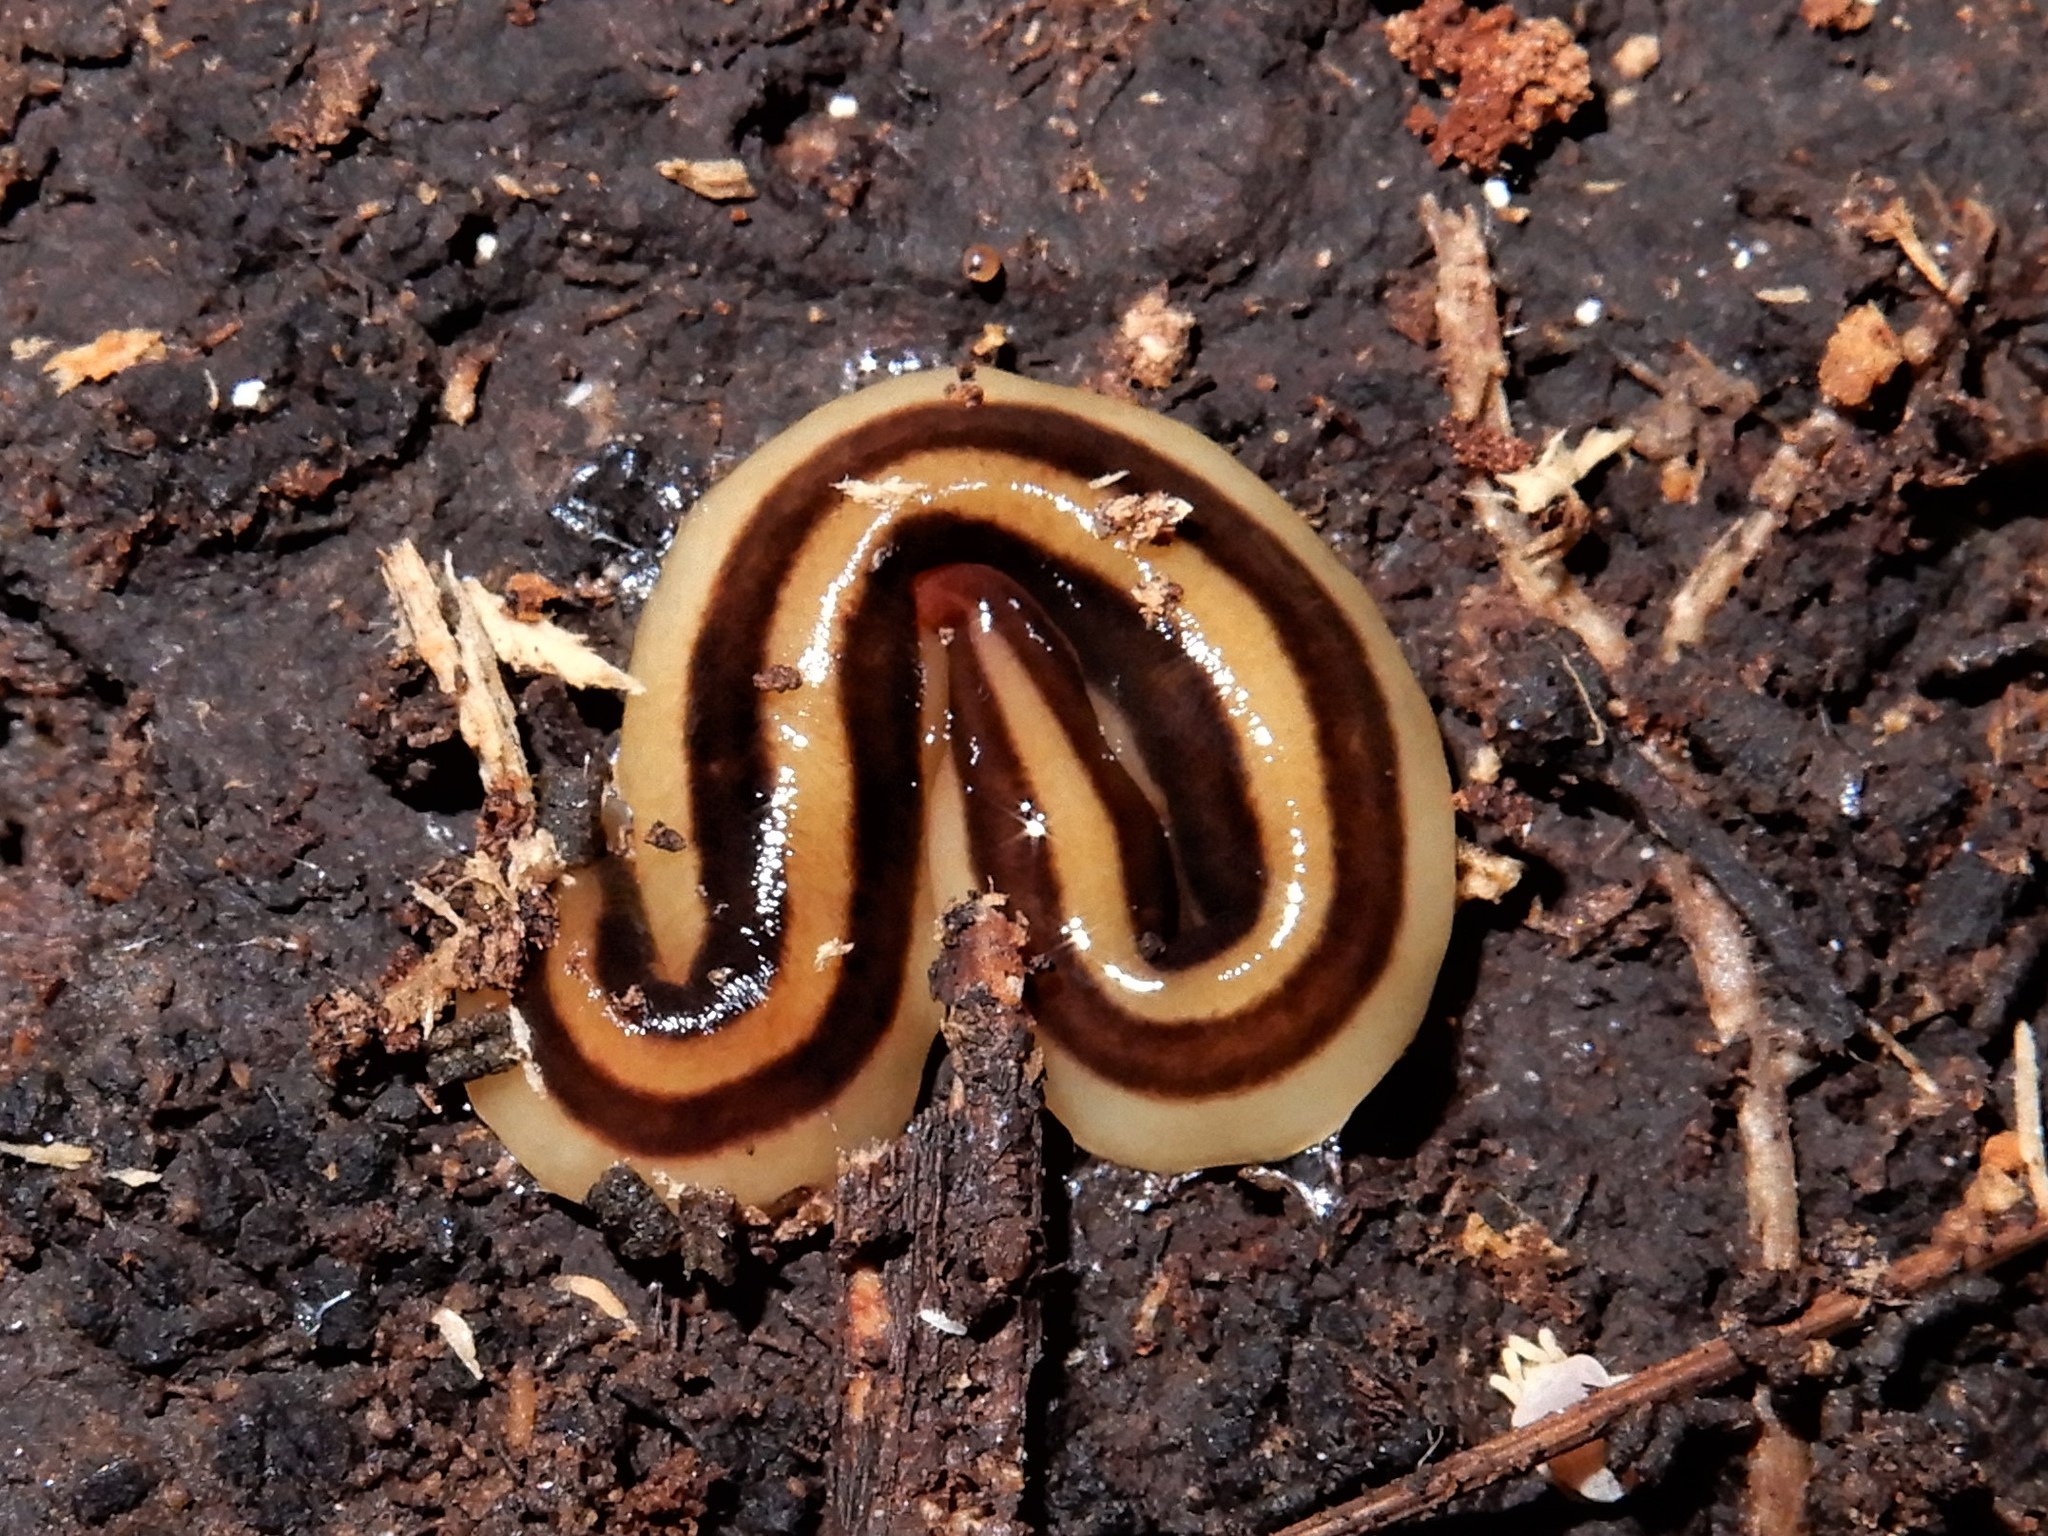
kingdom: Animalia
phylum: Platyhelminthes
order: Tricladida
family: Geoplanidae
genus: Newzealandia
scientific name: Newzealandia agricola
